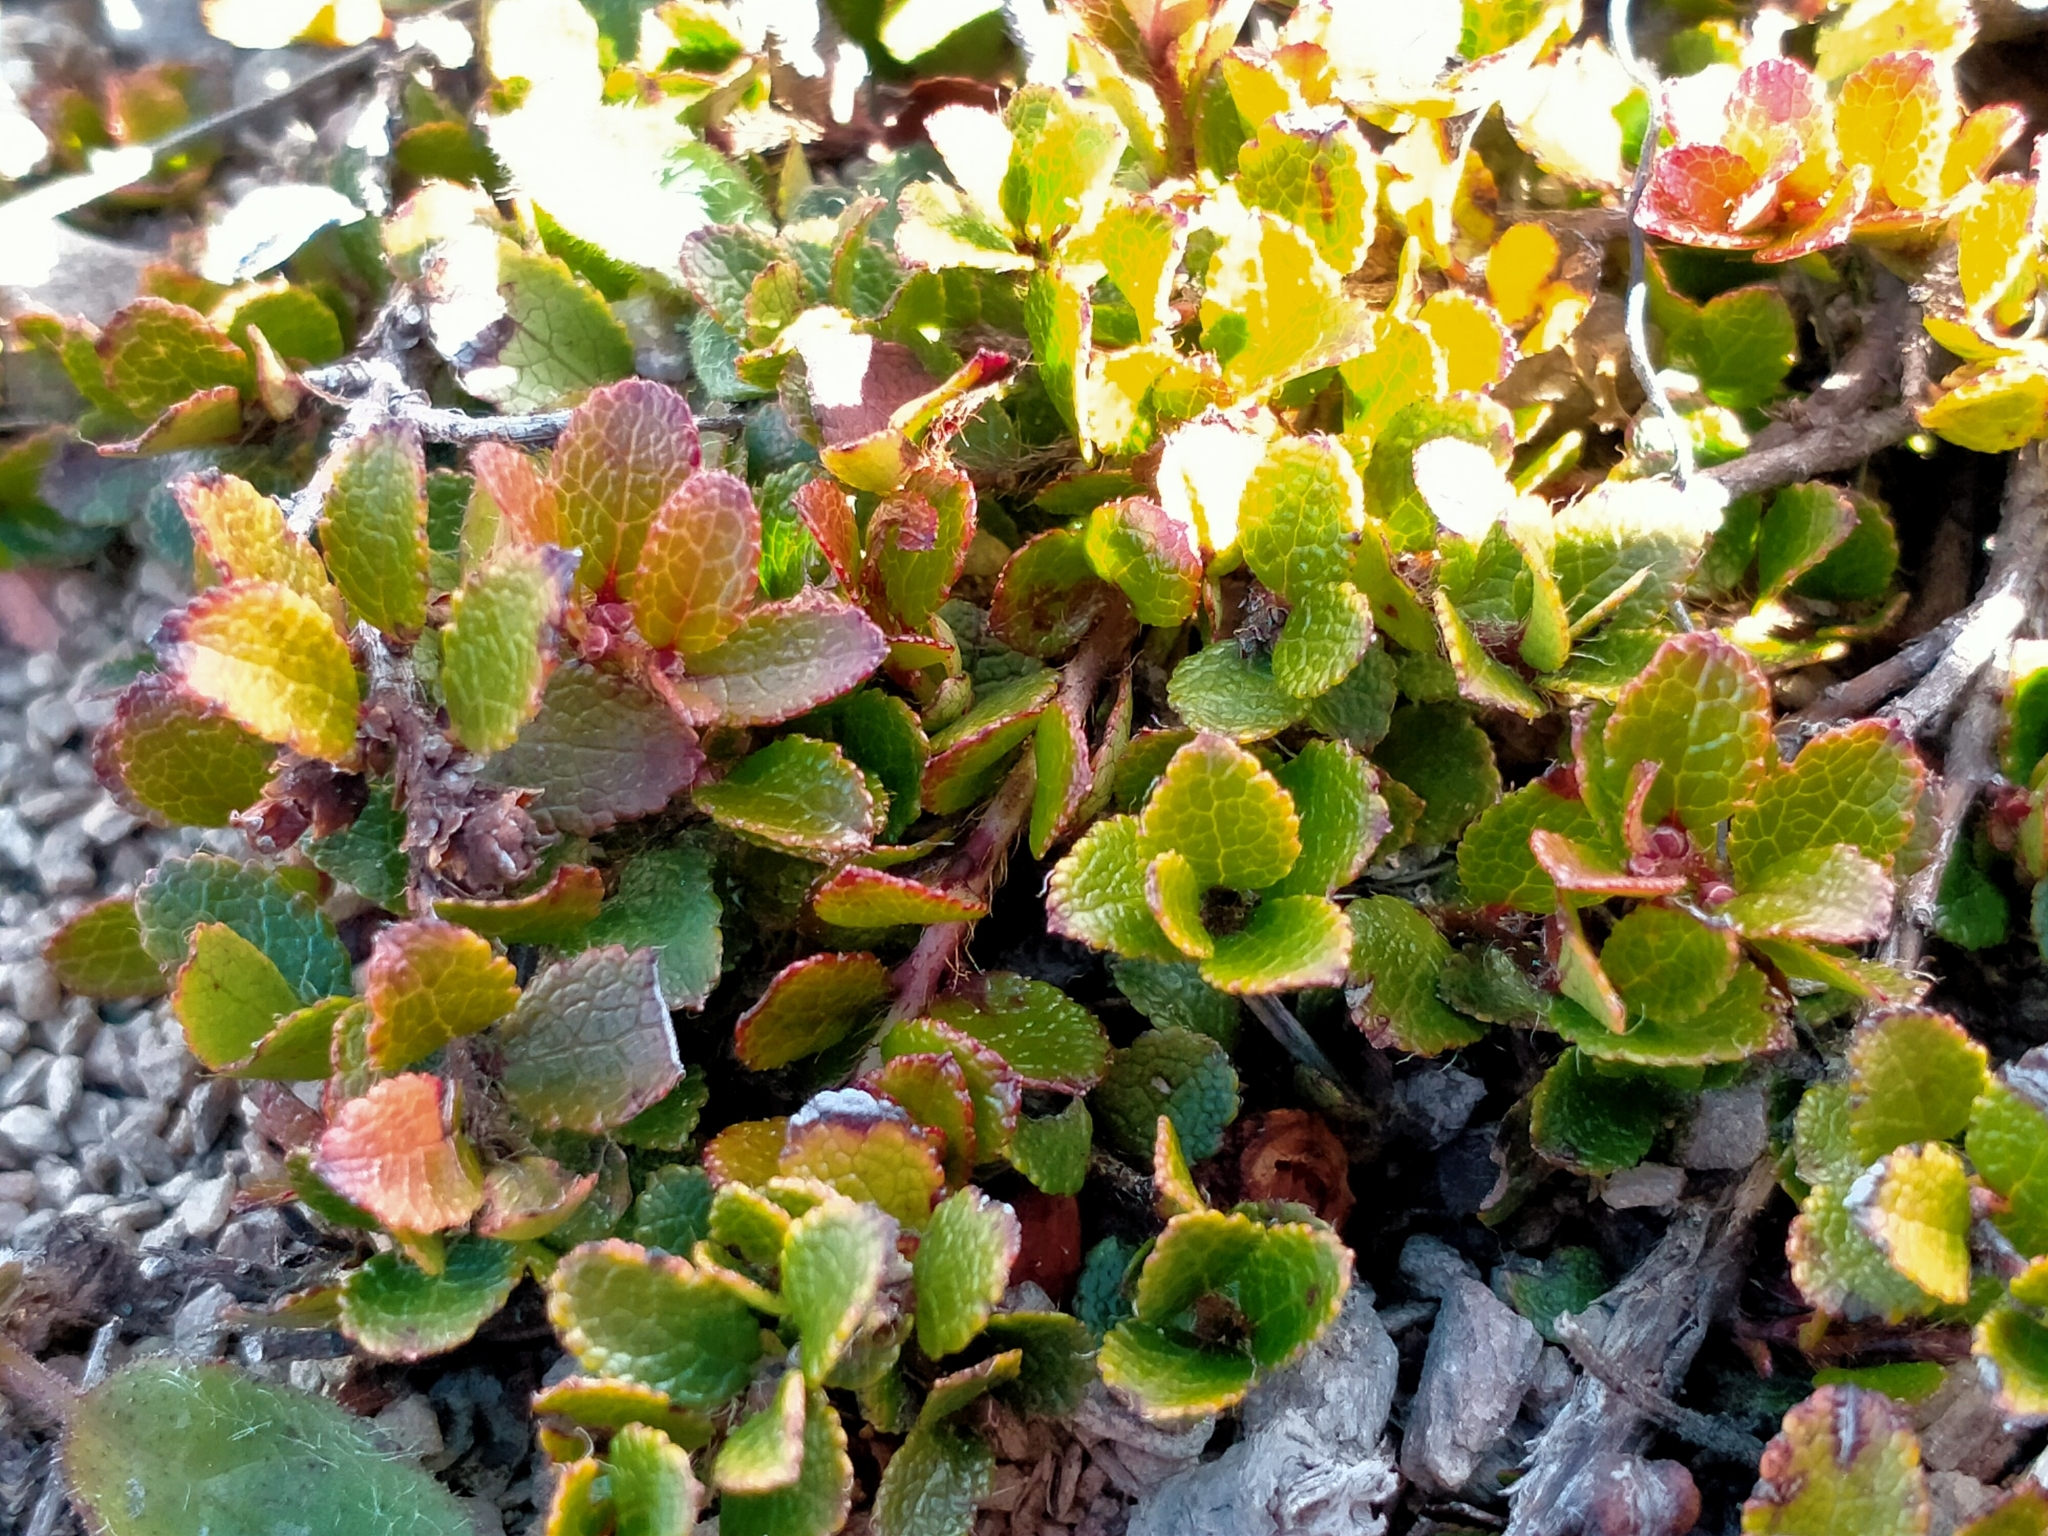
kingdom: Plantae
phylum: Tracheophyta
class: Magnoliopsida
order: Ericales
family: Ericaceae
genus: Gaultheria
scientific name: Gaultheria depressa
